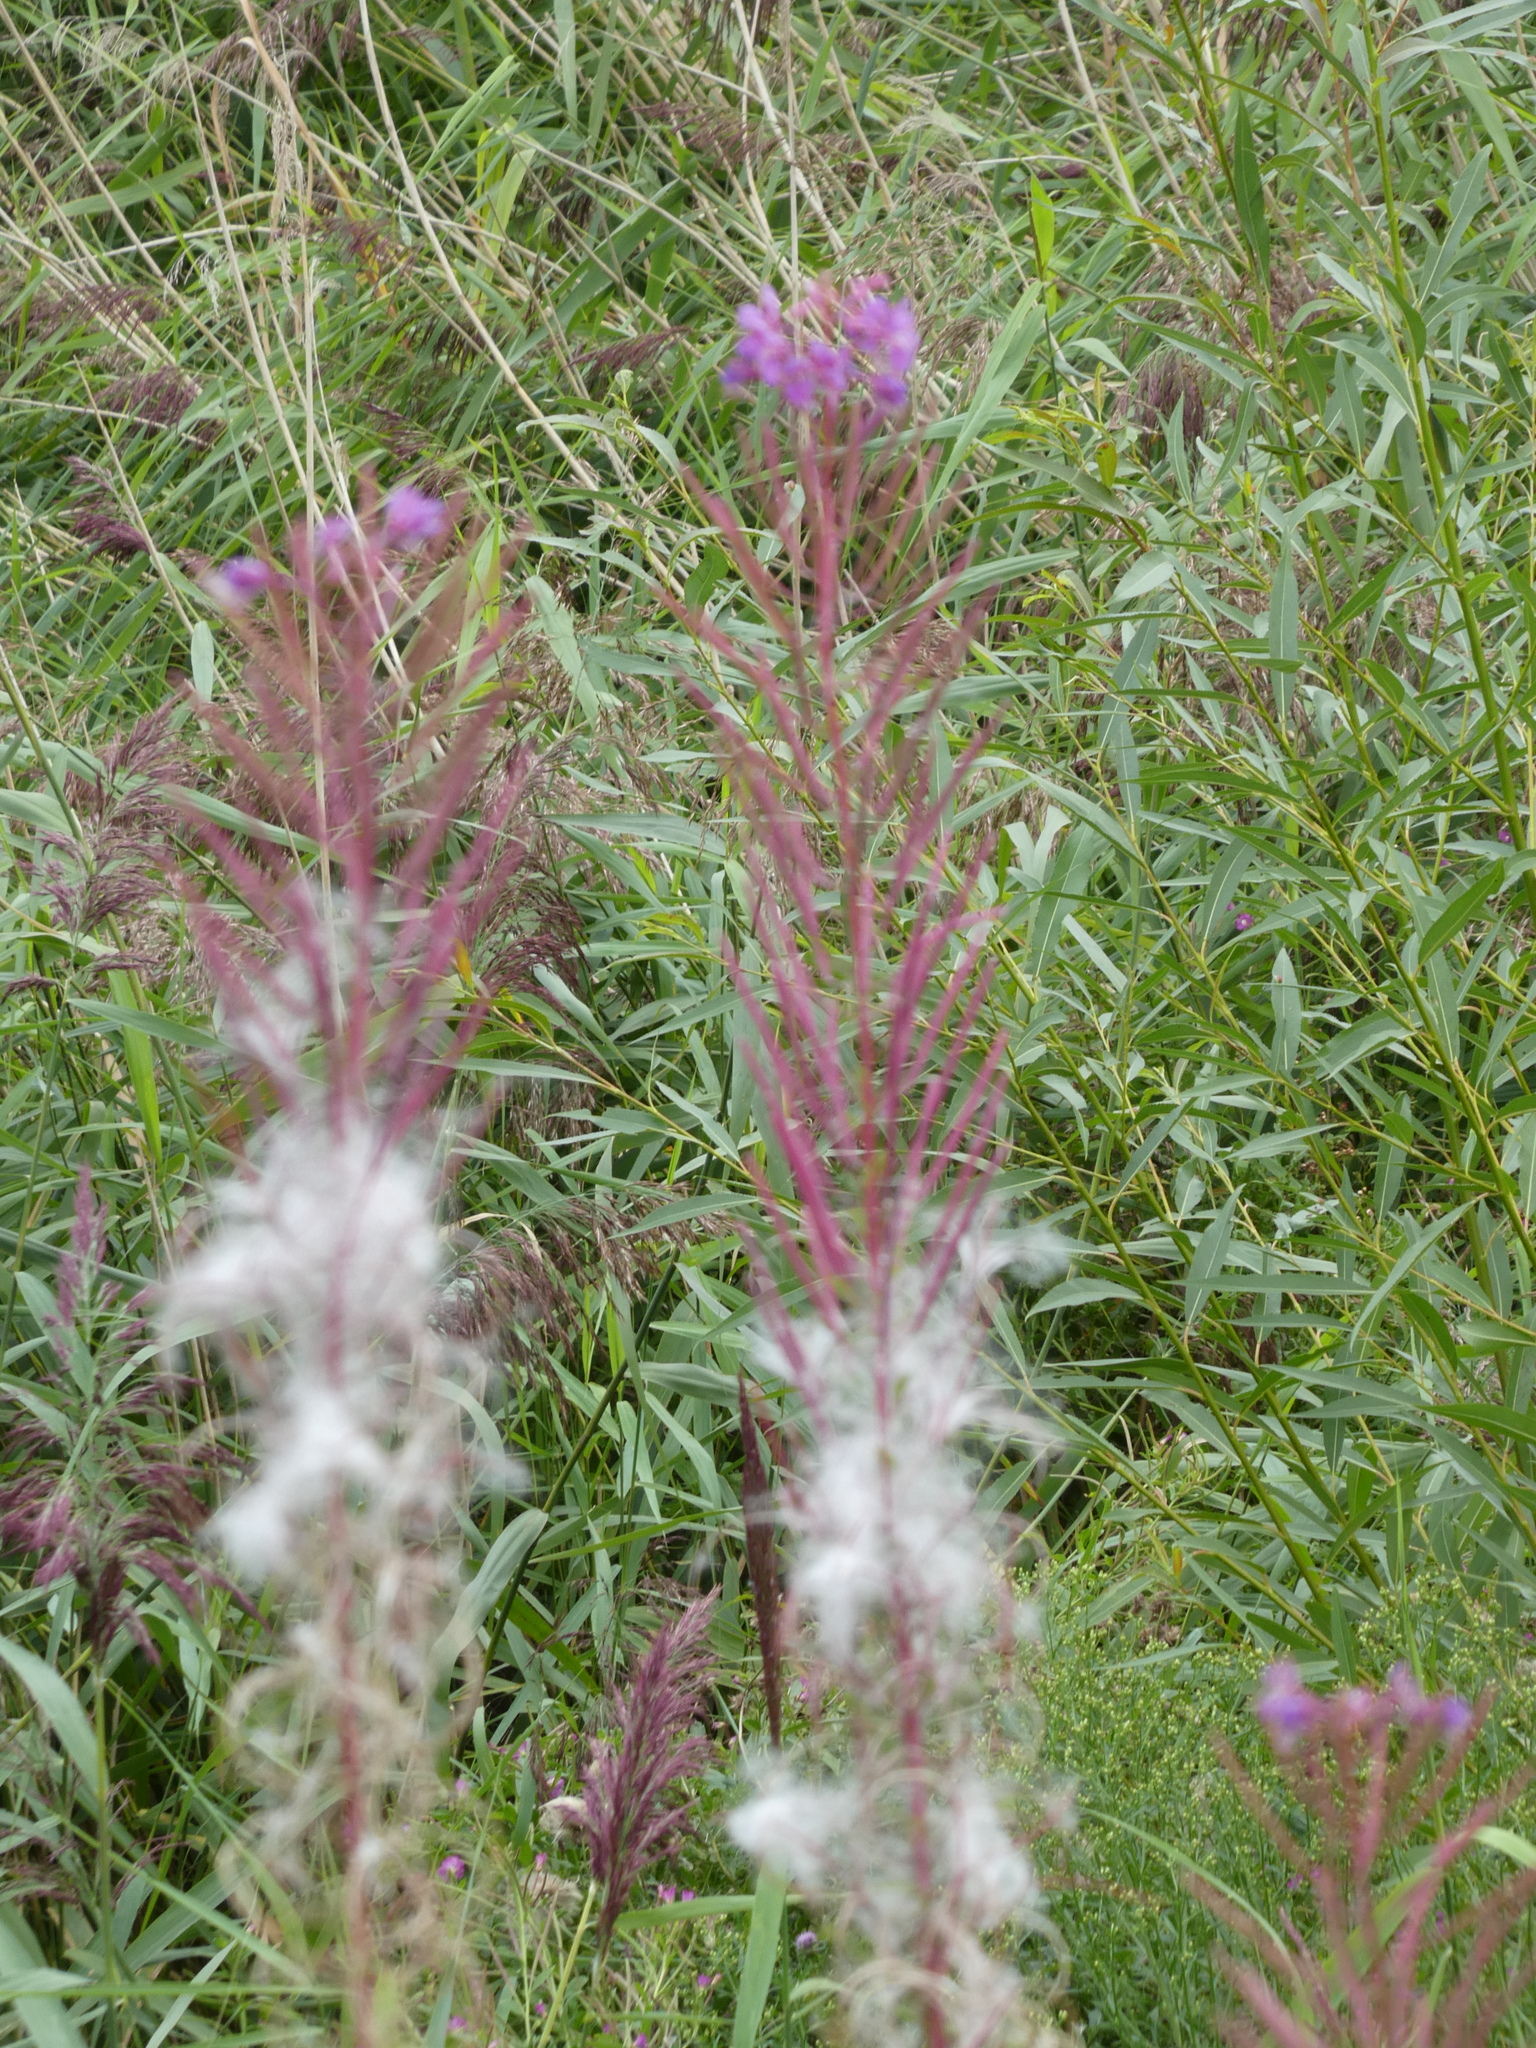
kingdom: Plantae
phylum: Tracheophyta
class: Magnoliopsida
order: Myrtales
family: Onagraceae
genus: Chamaenerion
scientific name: Chamaenerion angustifolium
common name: Fireweed
